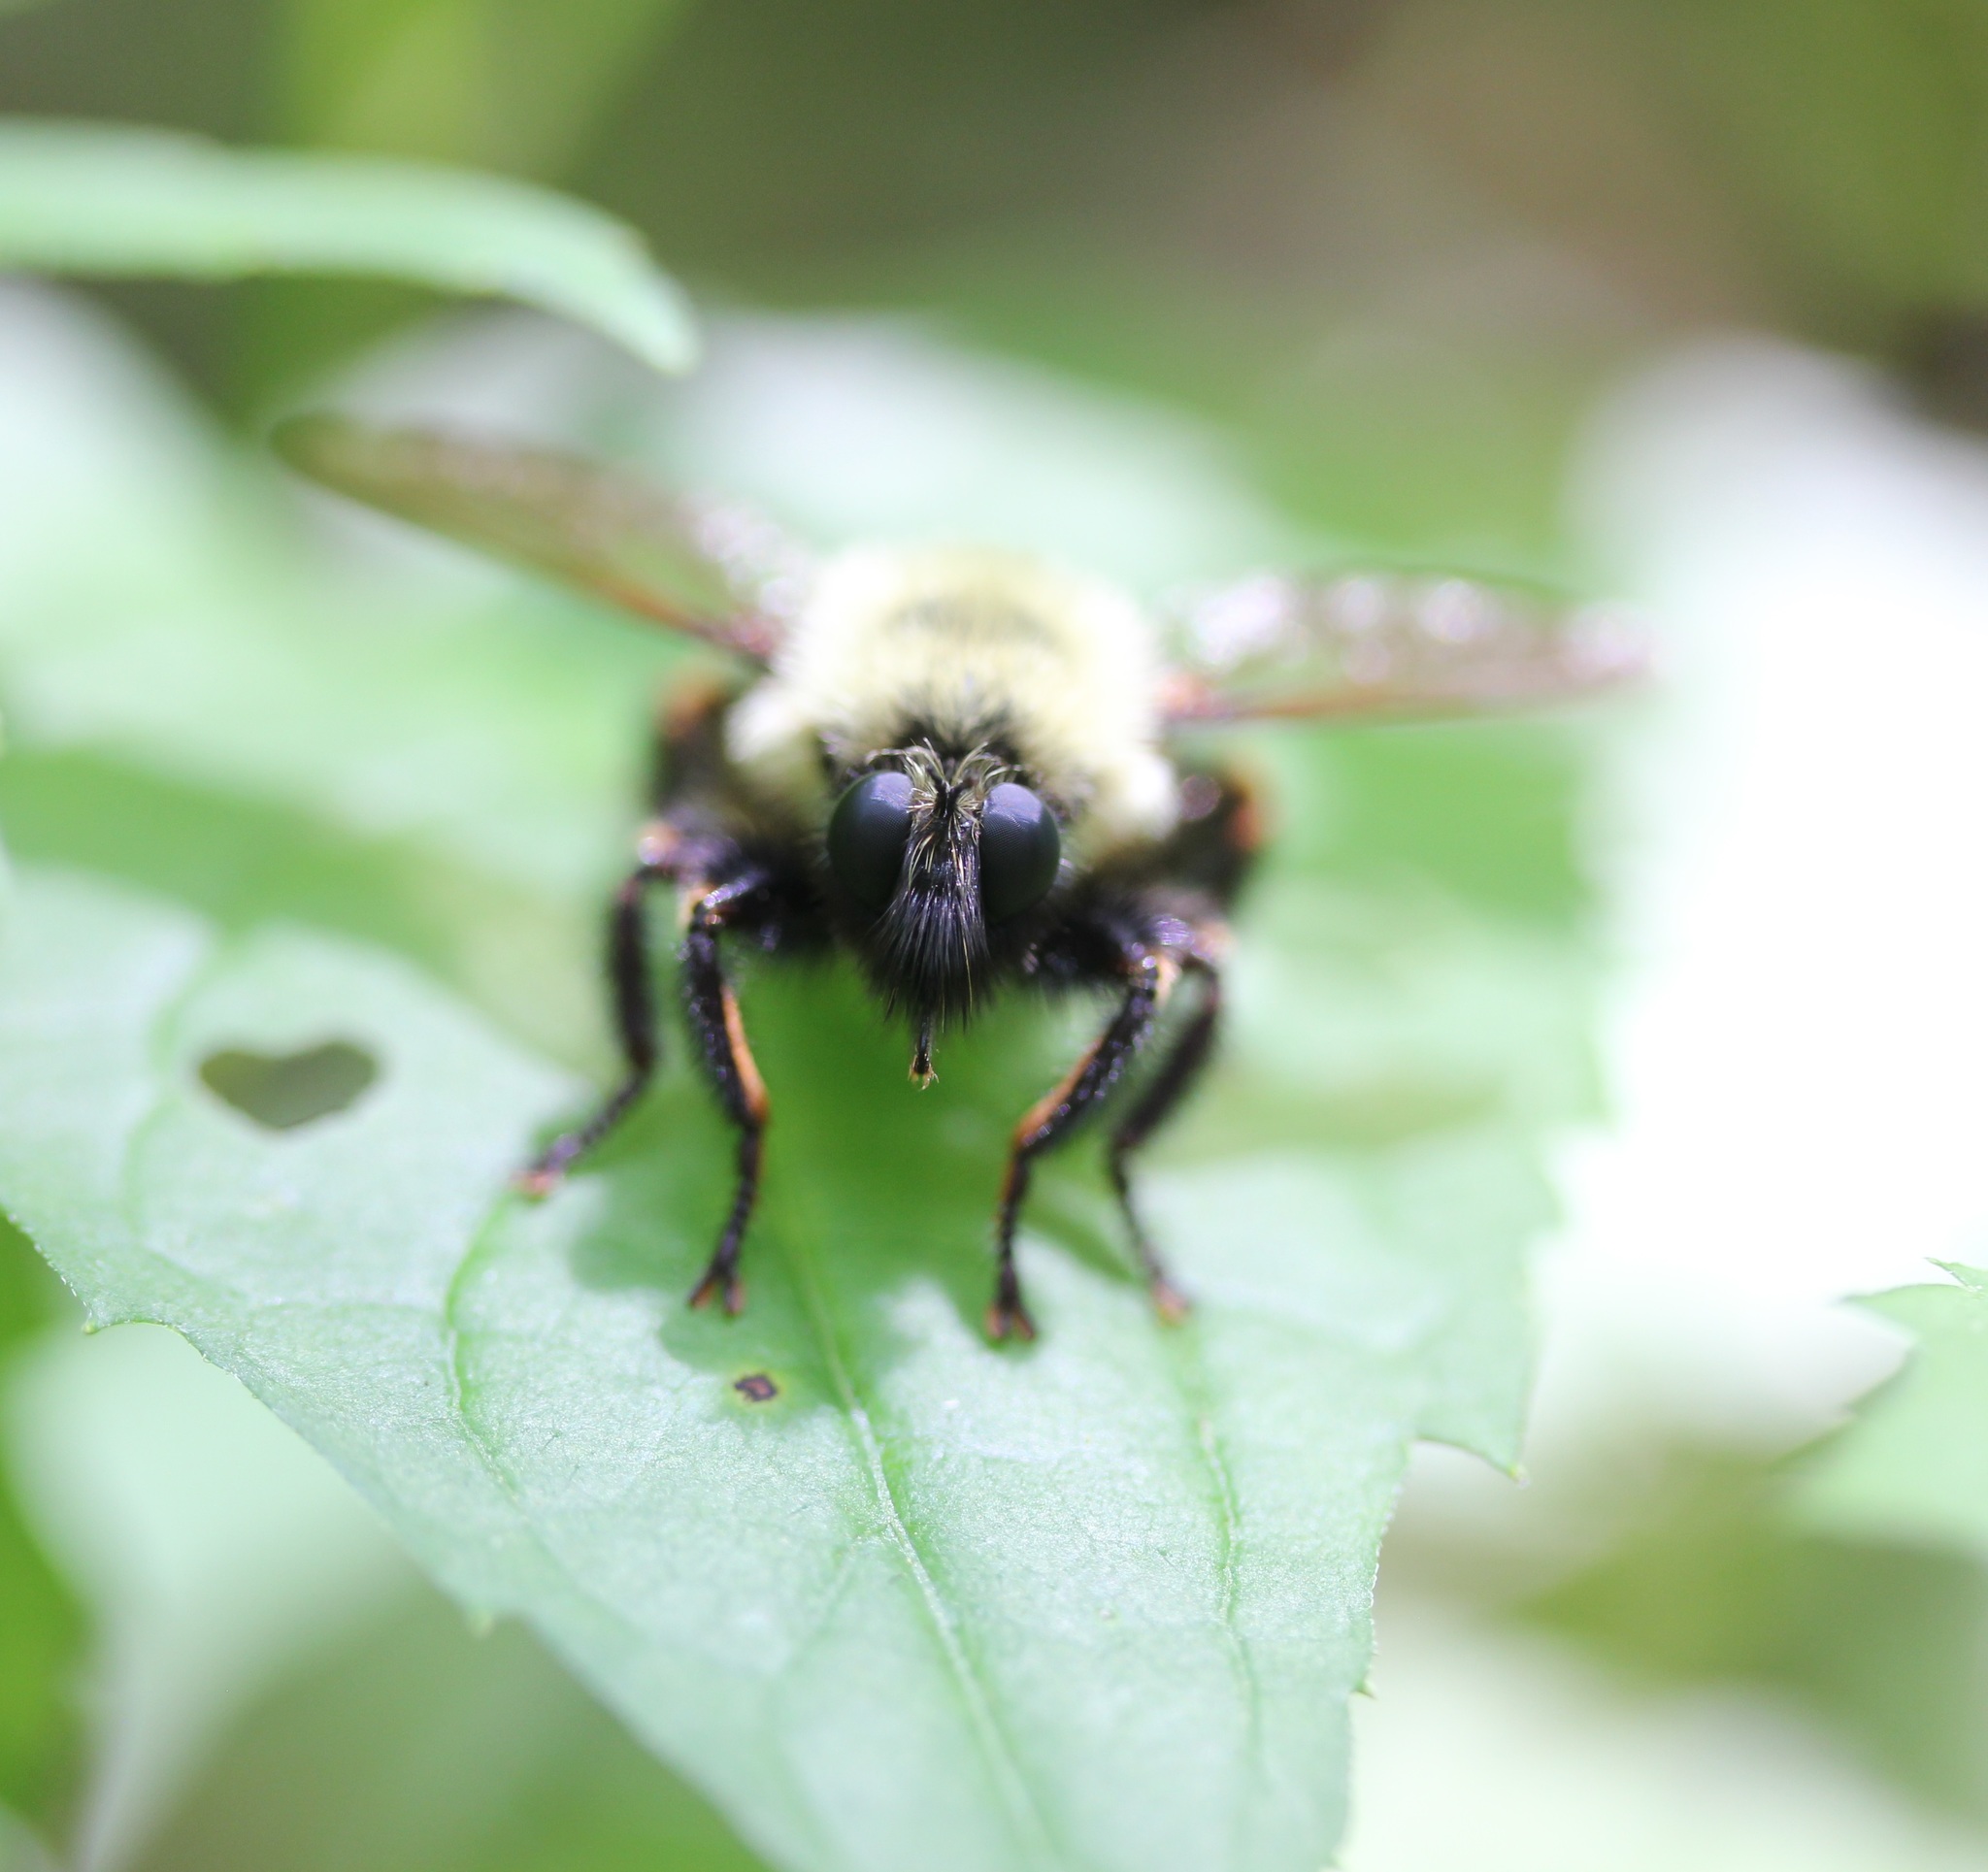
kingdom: Animalia
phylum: Arthropoda
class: Insecta
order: Diptera
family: Asilidae
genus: Laphria
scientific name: Laphria thoracica
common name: Bumble bee mimic robber fly
